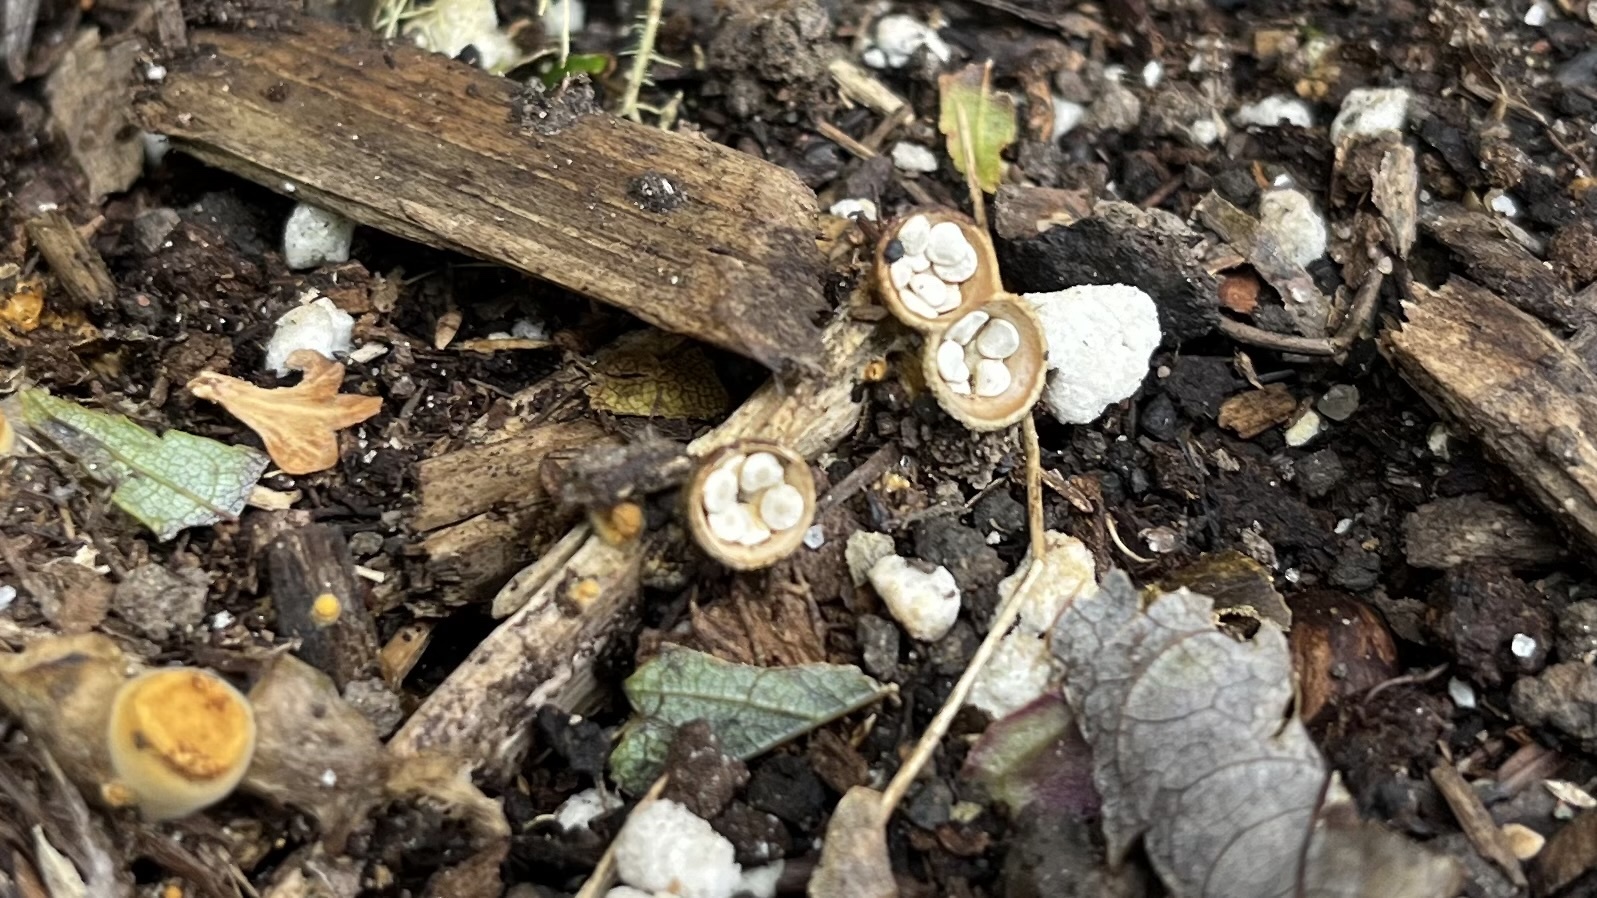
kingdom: Fungi
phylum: Basidiomycota
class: Agaricomycetes
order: Agaricales
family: Nidulariaceae
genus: Crucibulum
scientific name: Crucibulum laeve
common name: Common bird's nest
